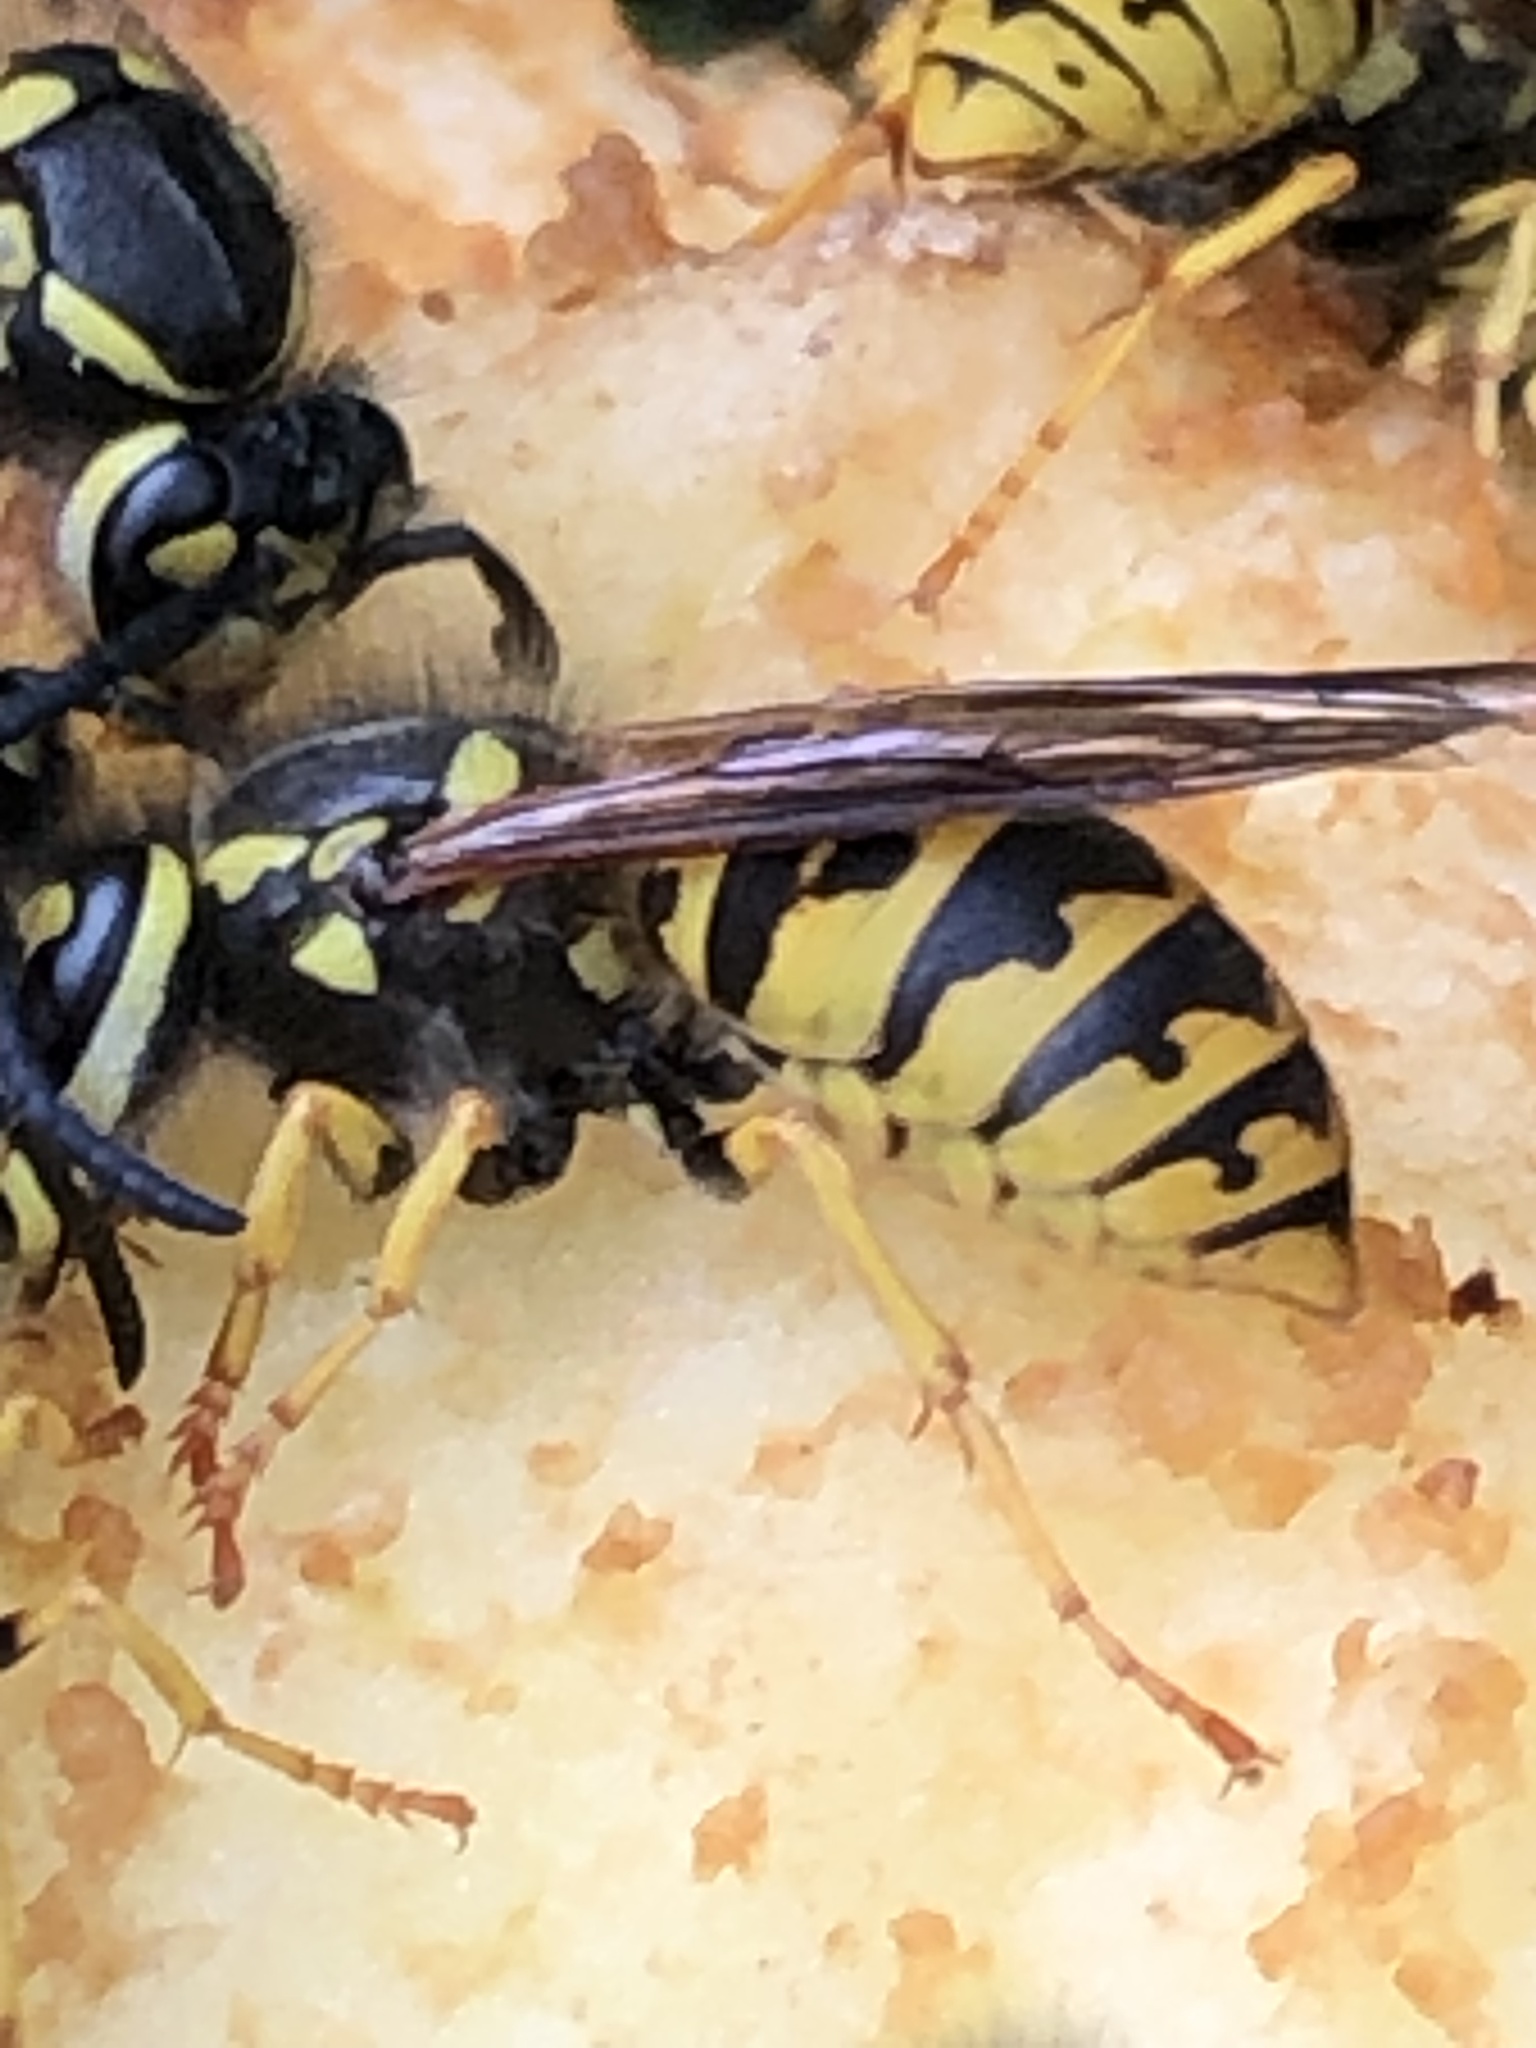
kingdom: Animalia
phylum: Arthropoda
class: Insecta
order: Hymenoptera
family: Vespidae
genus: Vespula
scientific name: Vespula germanica
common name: German wasp
